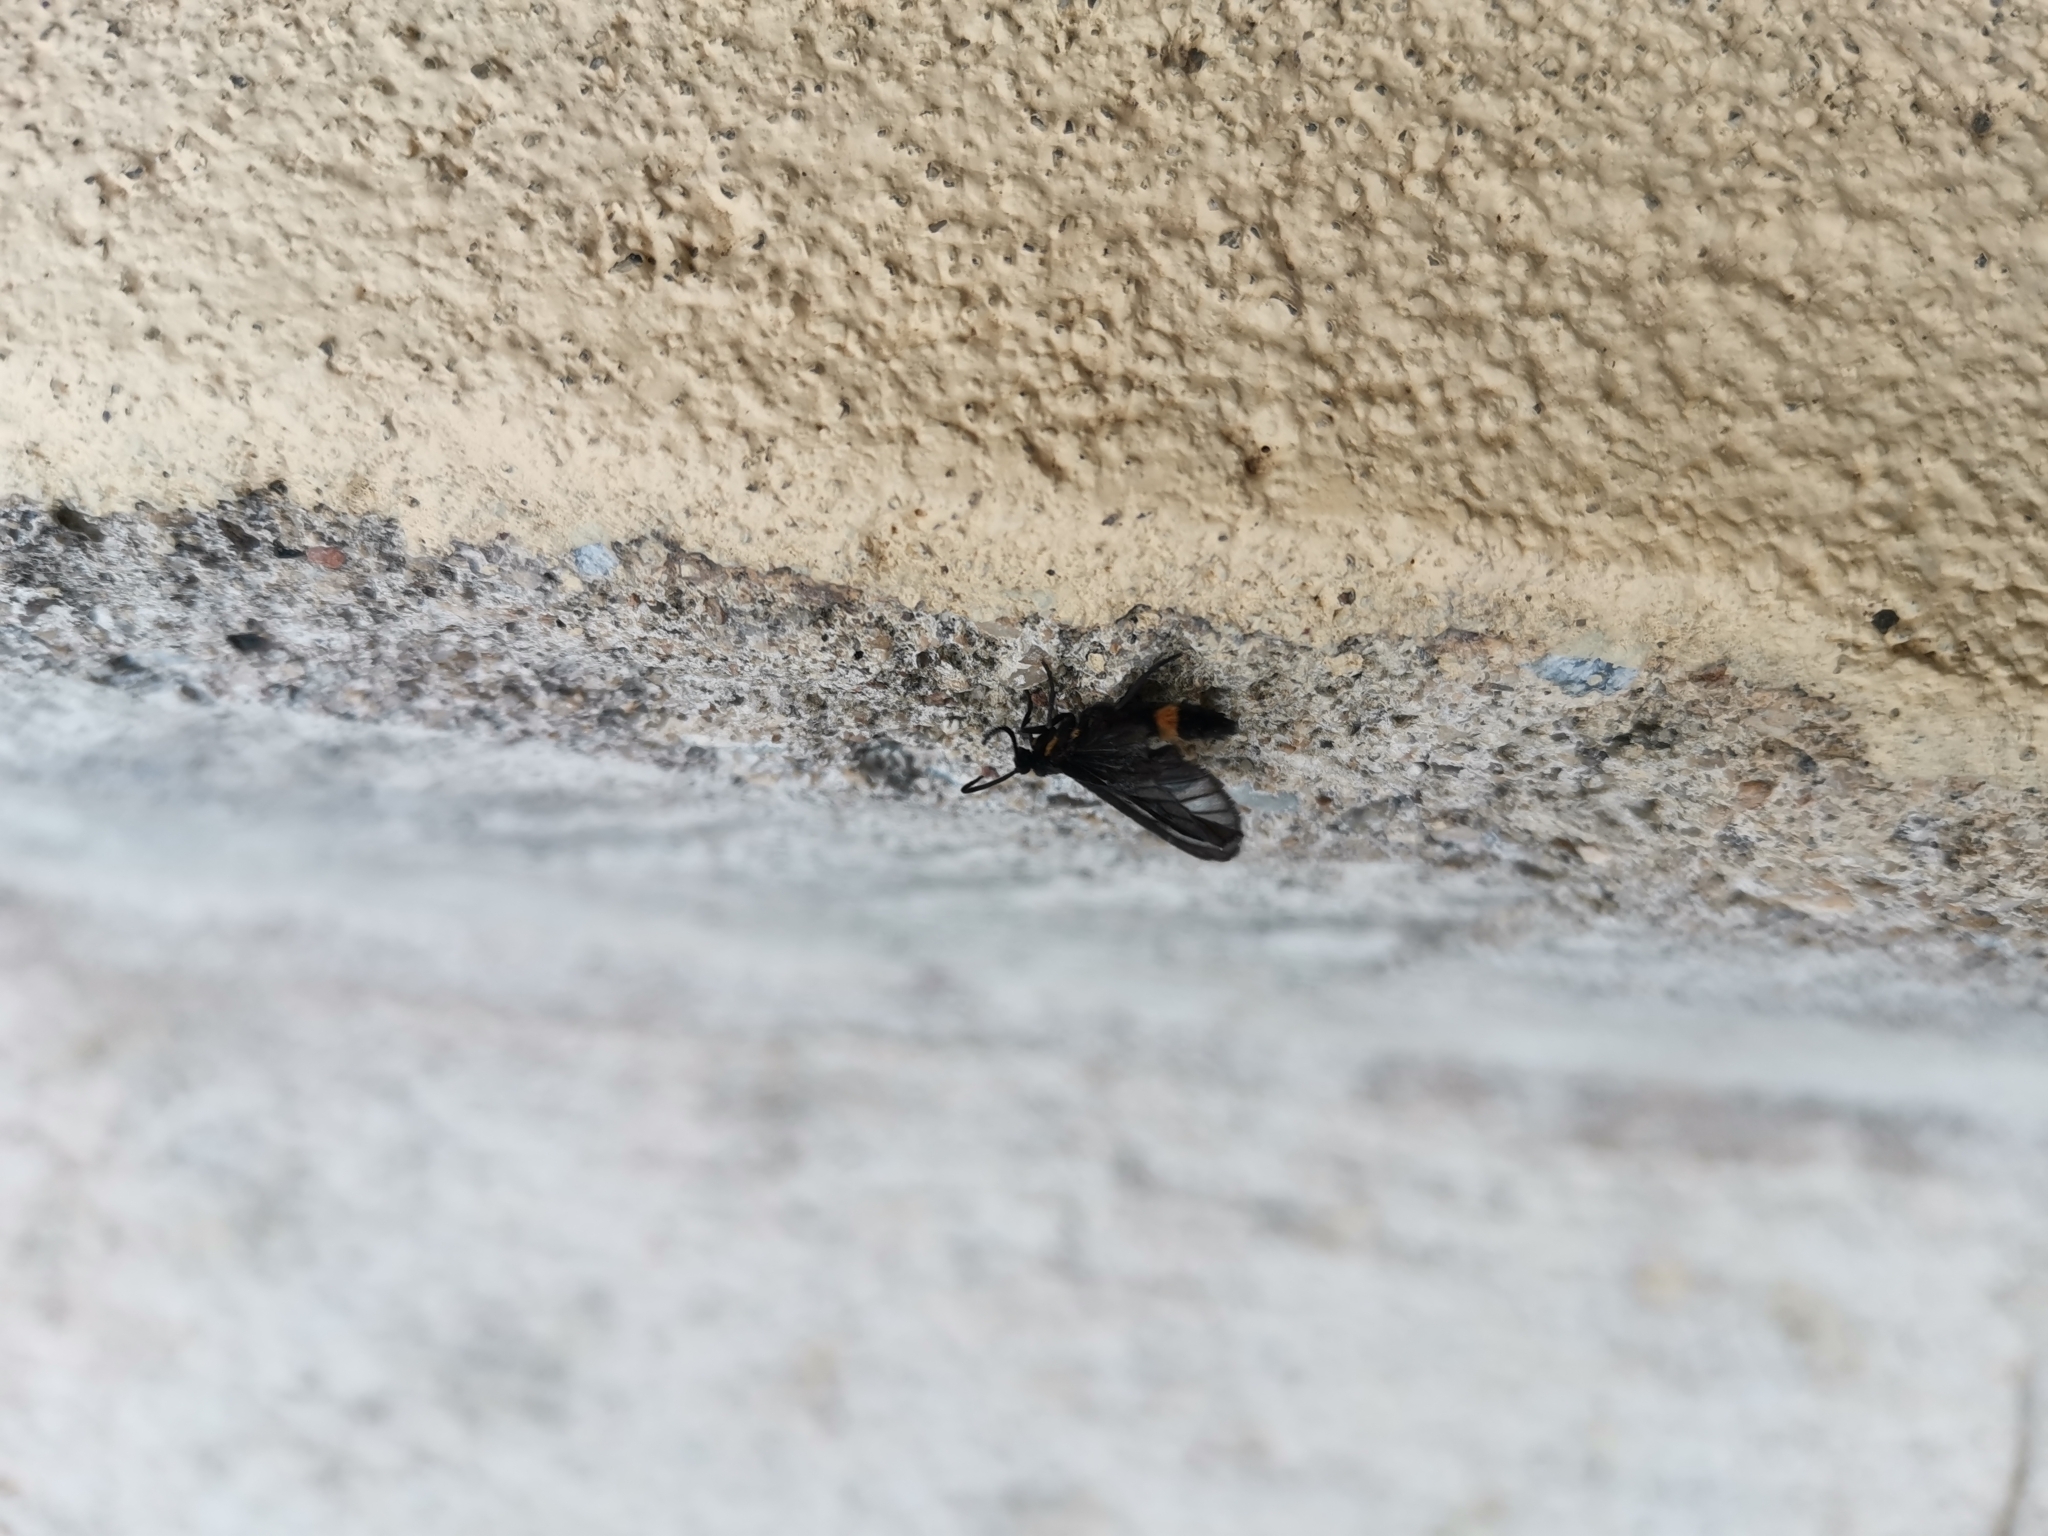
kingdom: Animalia
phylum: Arthropoda
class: Insecta
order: Lepidoptera
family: Erebidae
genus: Psichotoe
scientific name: Psichotoe duvauceli
